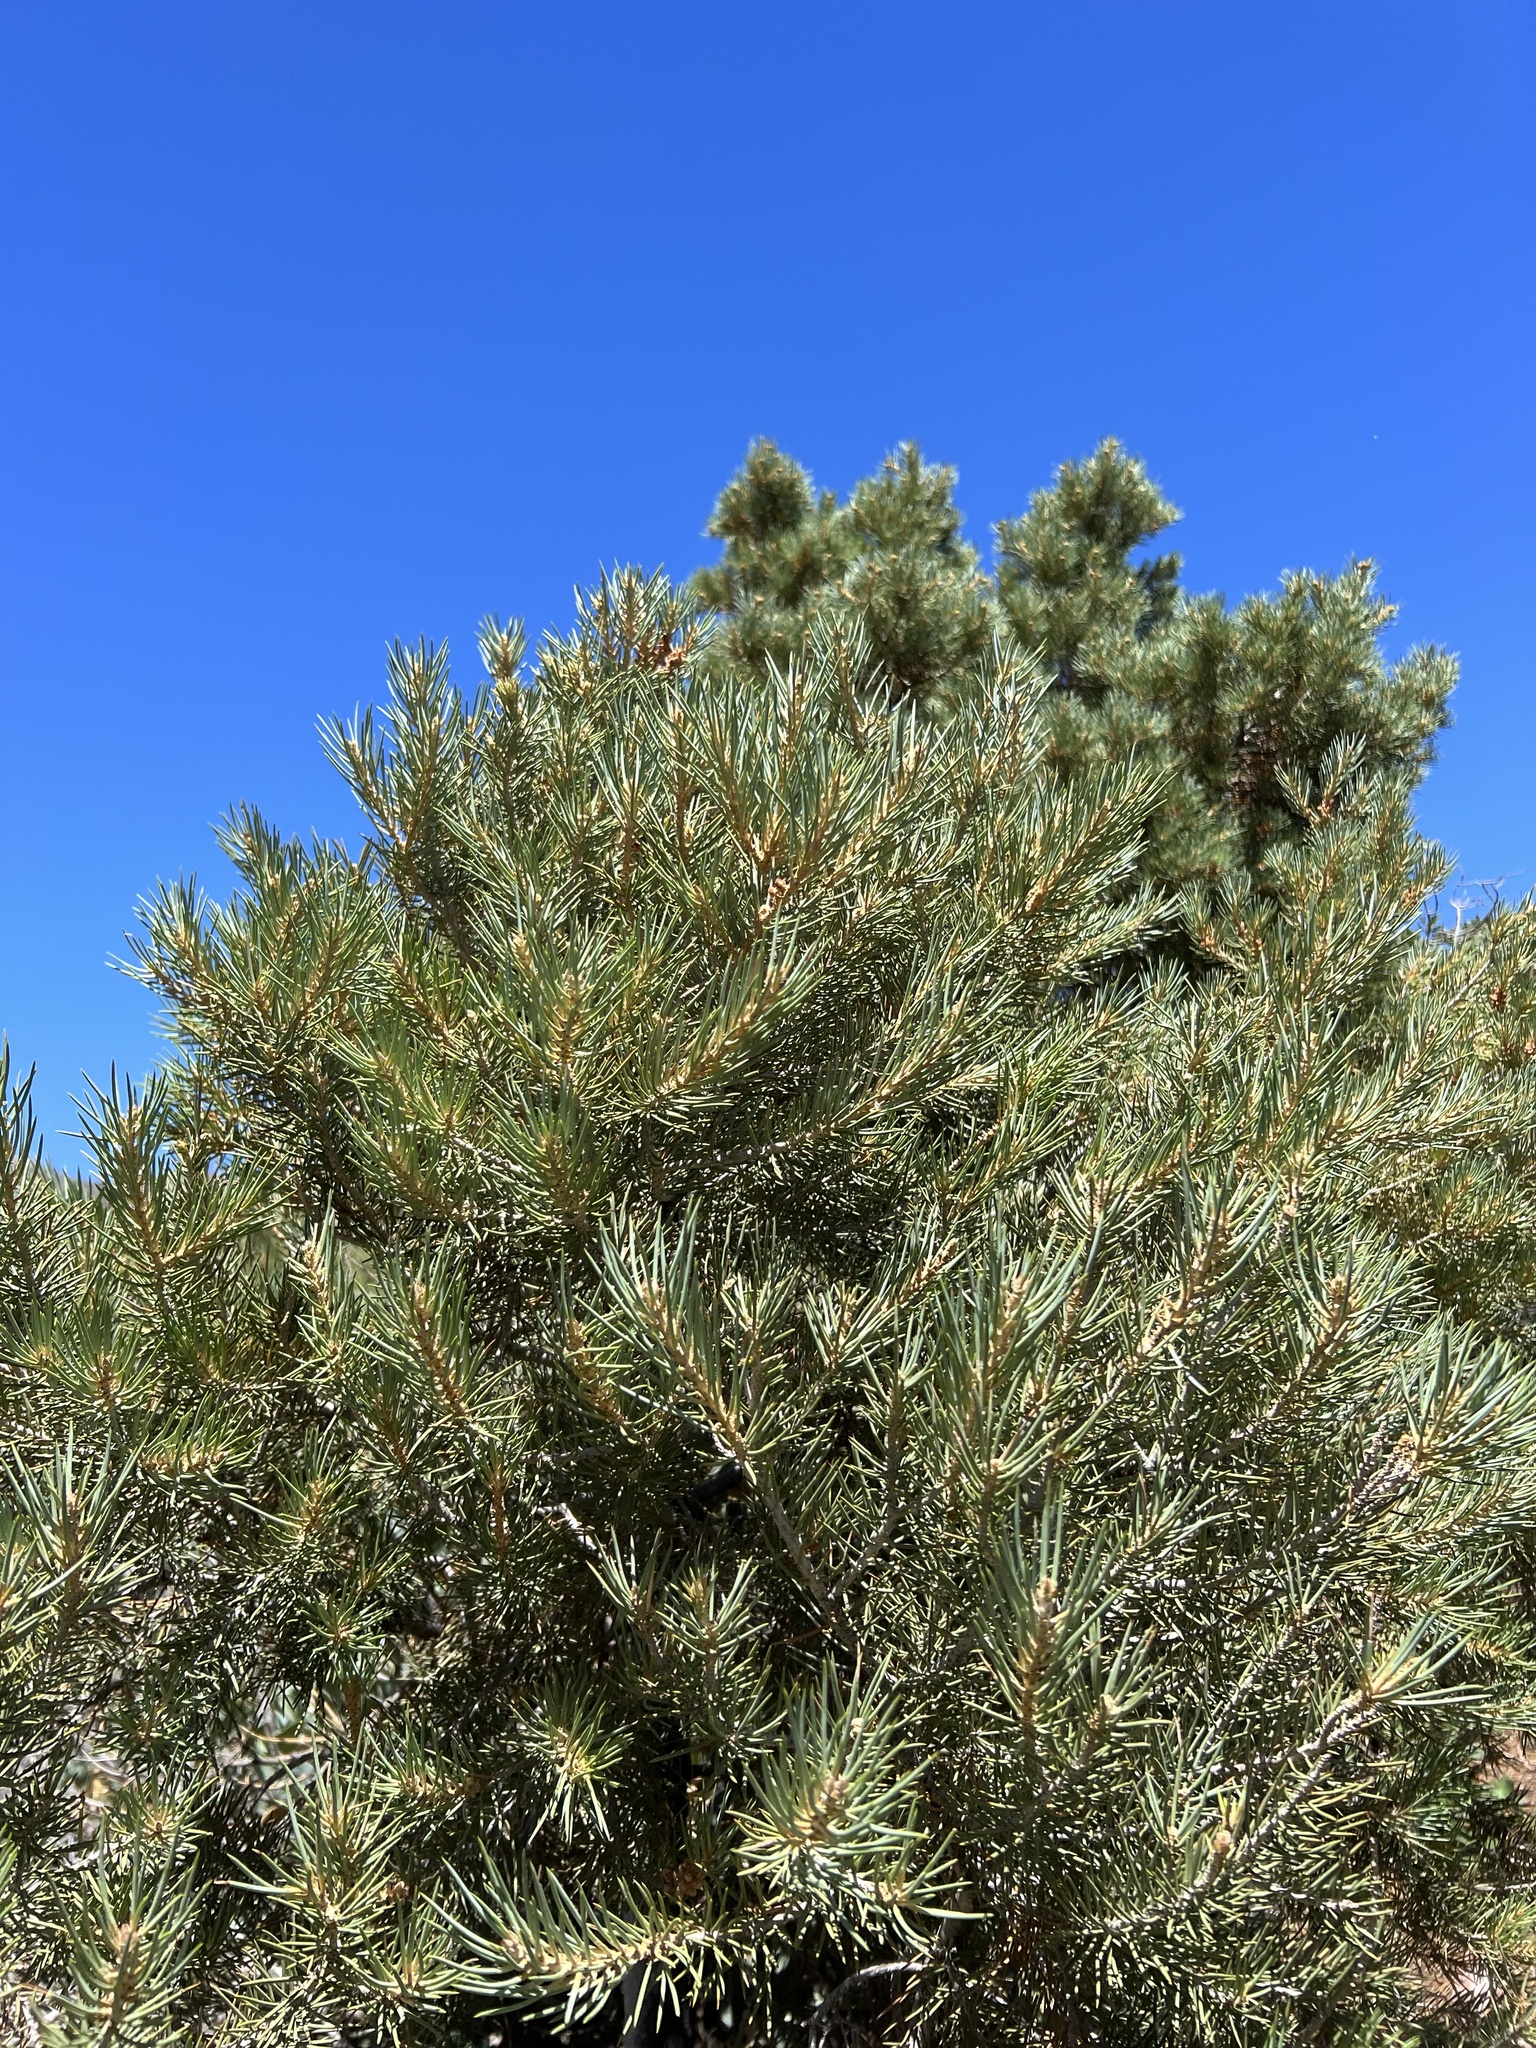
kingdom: Plantae
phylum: Tracheophyta
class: Pinopsida
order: Pinales
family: Pinaceae
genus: Pinus
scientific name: Pinus monophylla
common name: One-leaved nut pine
